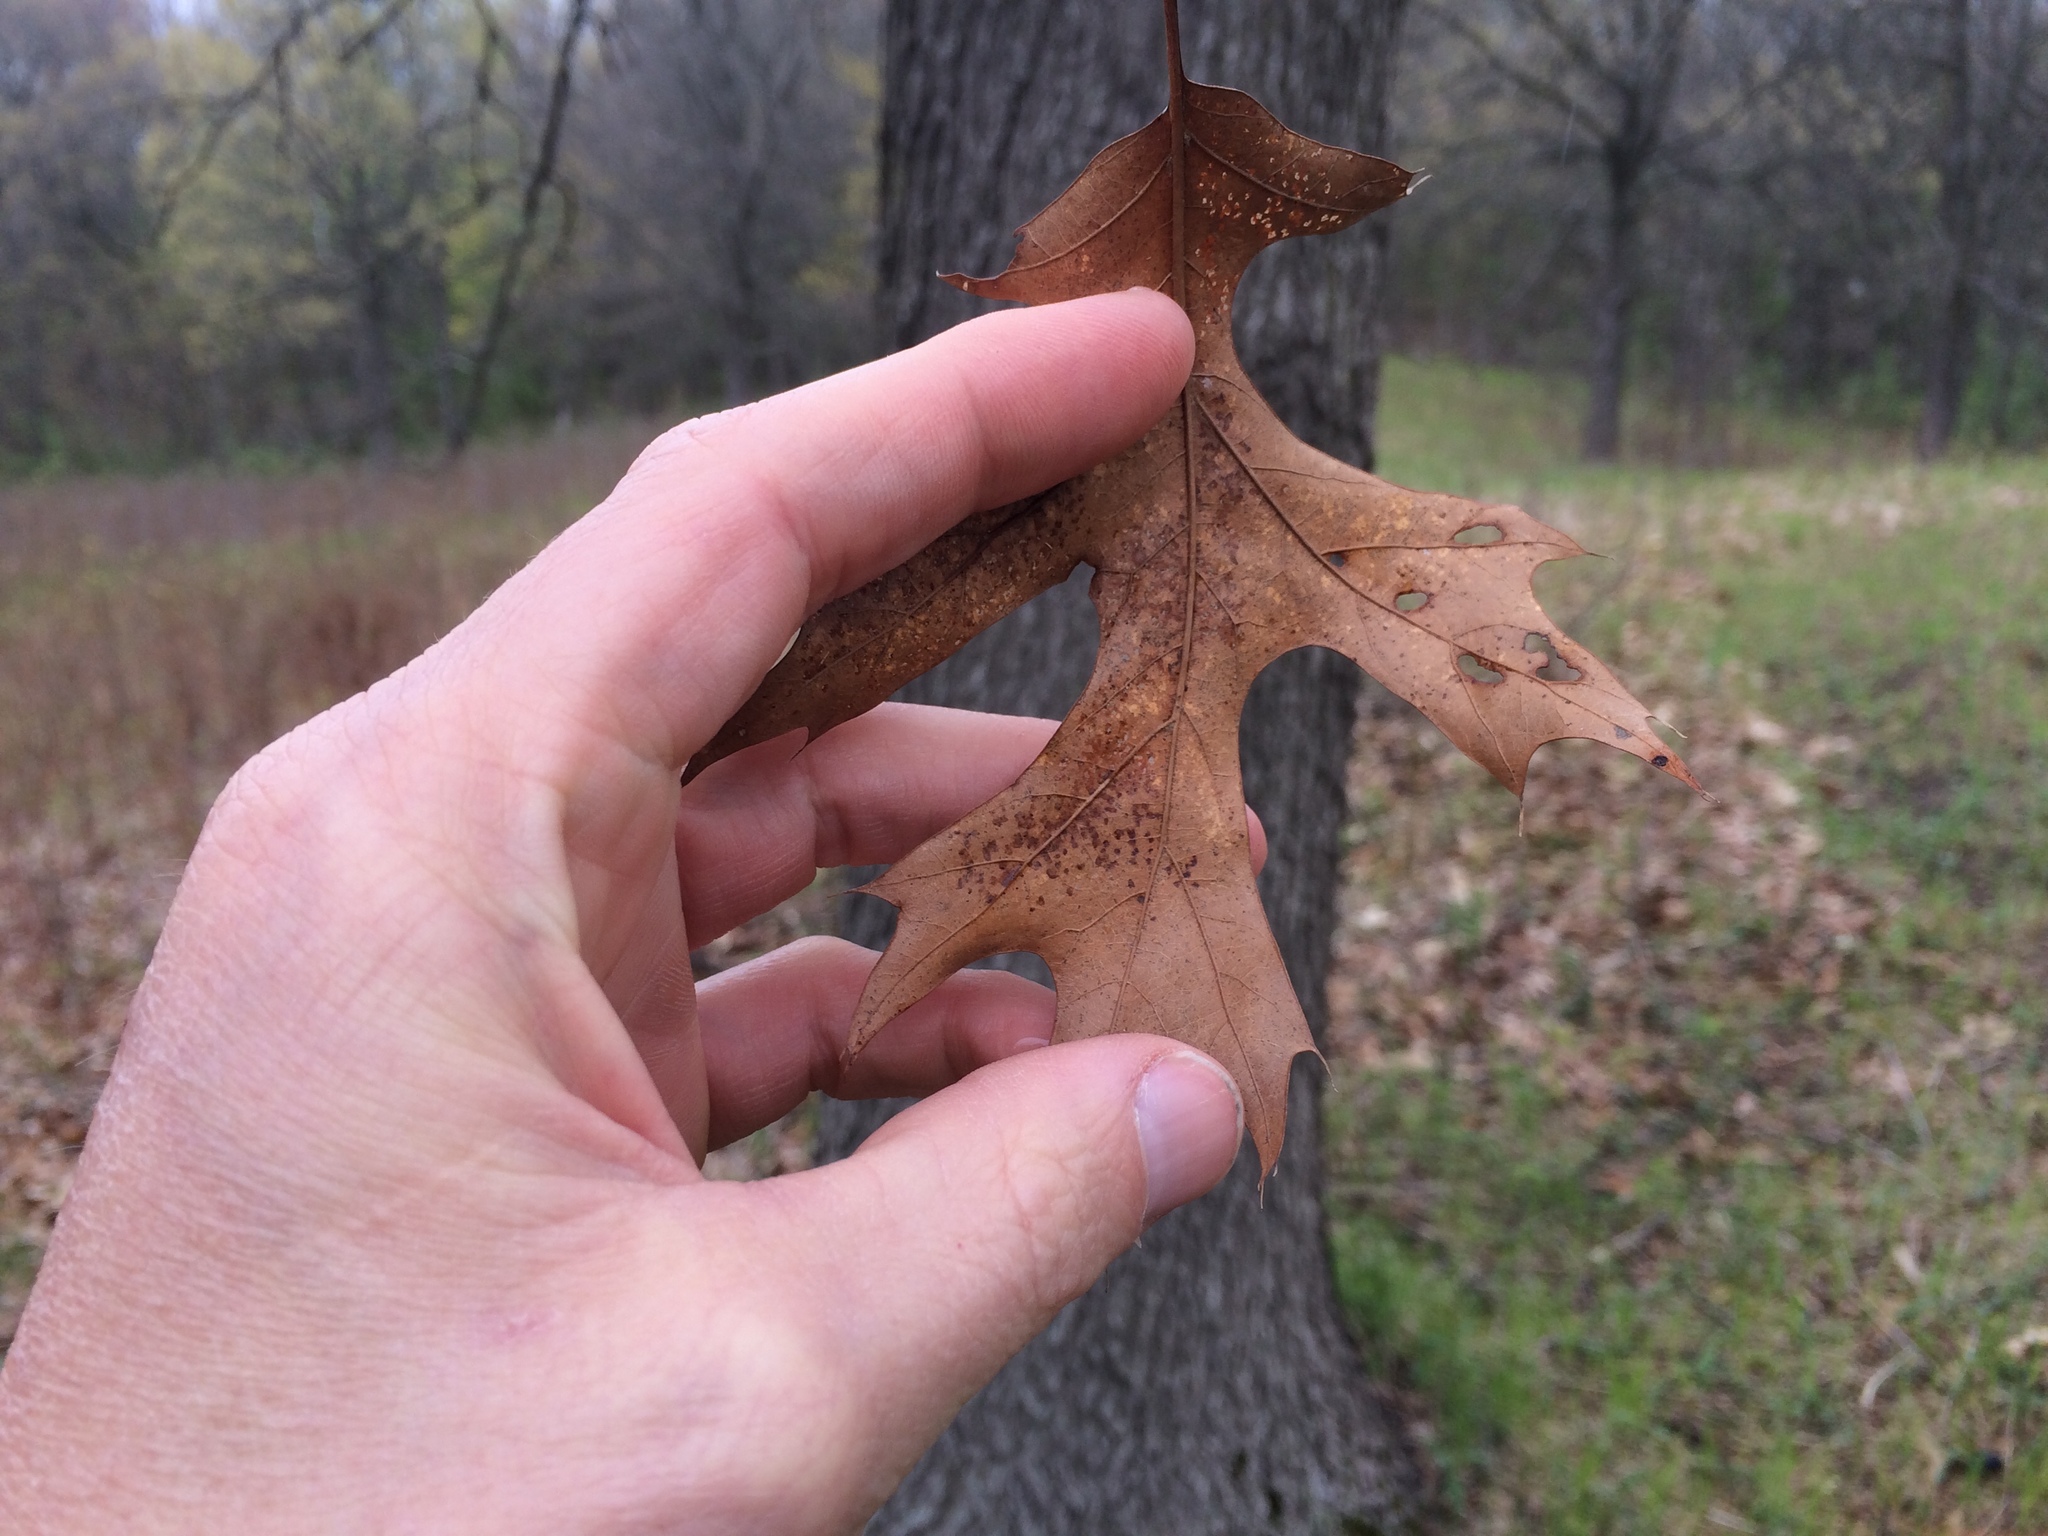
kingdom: Plantae
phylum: Tracheophyta
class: Magnoliopsida
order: Fagales
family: Fagaceae
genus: Quercus
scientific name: Quercus palustris
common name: Pin oak
